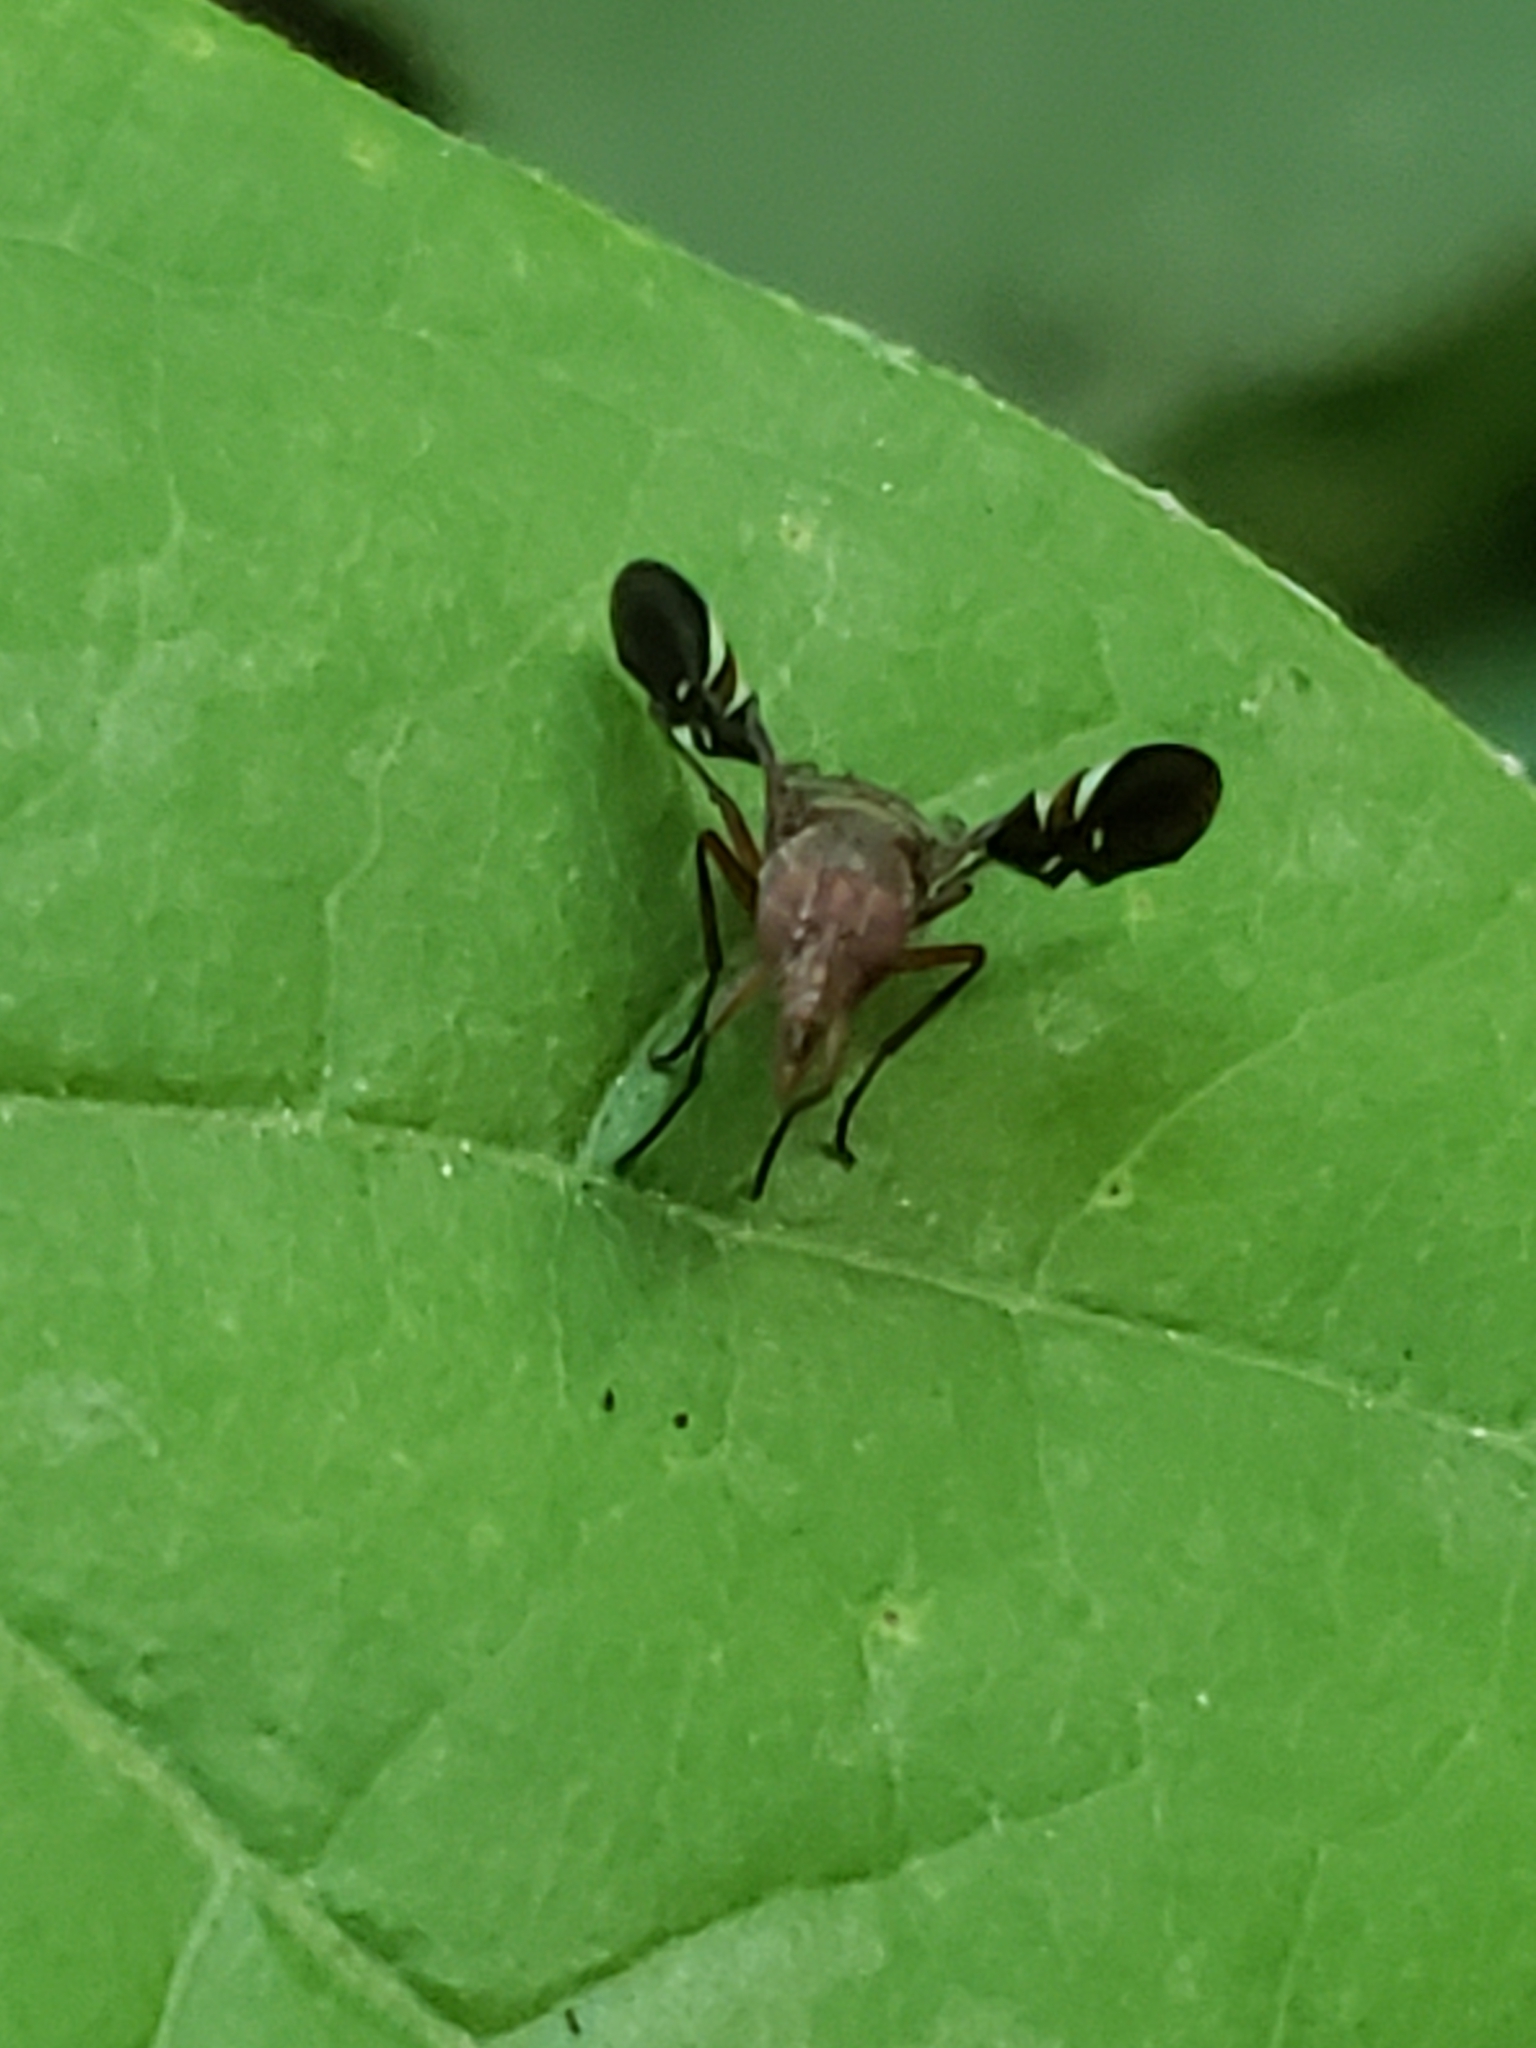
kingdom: Animalia
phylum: Arthropoda
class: Insecta
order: Diptera
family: Ulidiidae
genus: Delphinia
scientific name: Delphinia picta
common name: Common picture-winged fly
